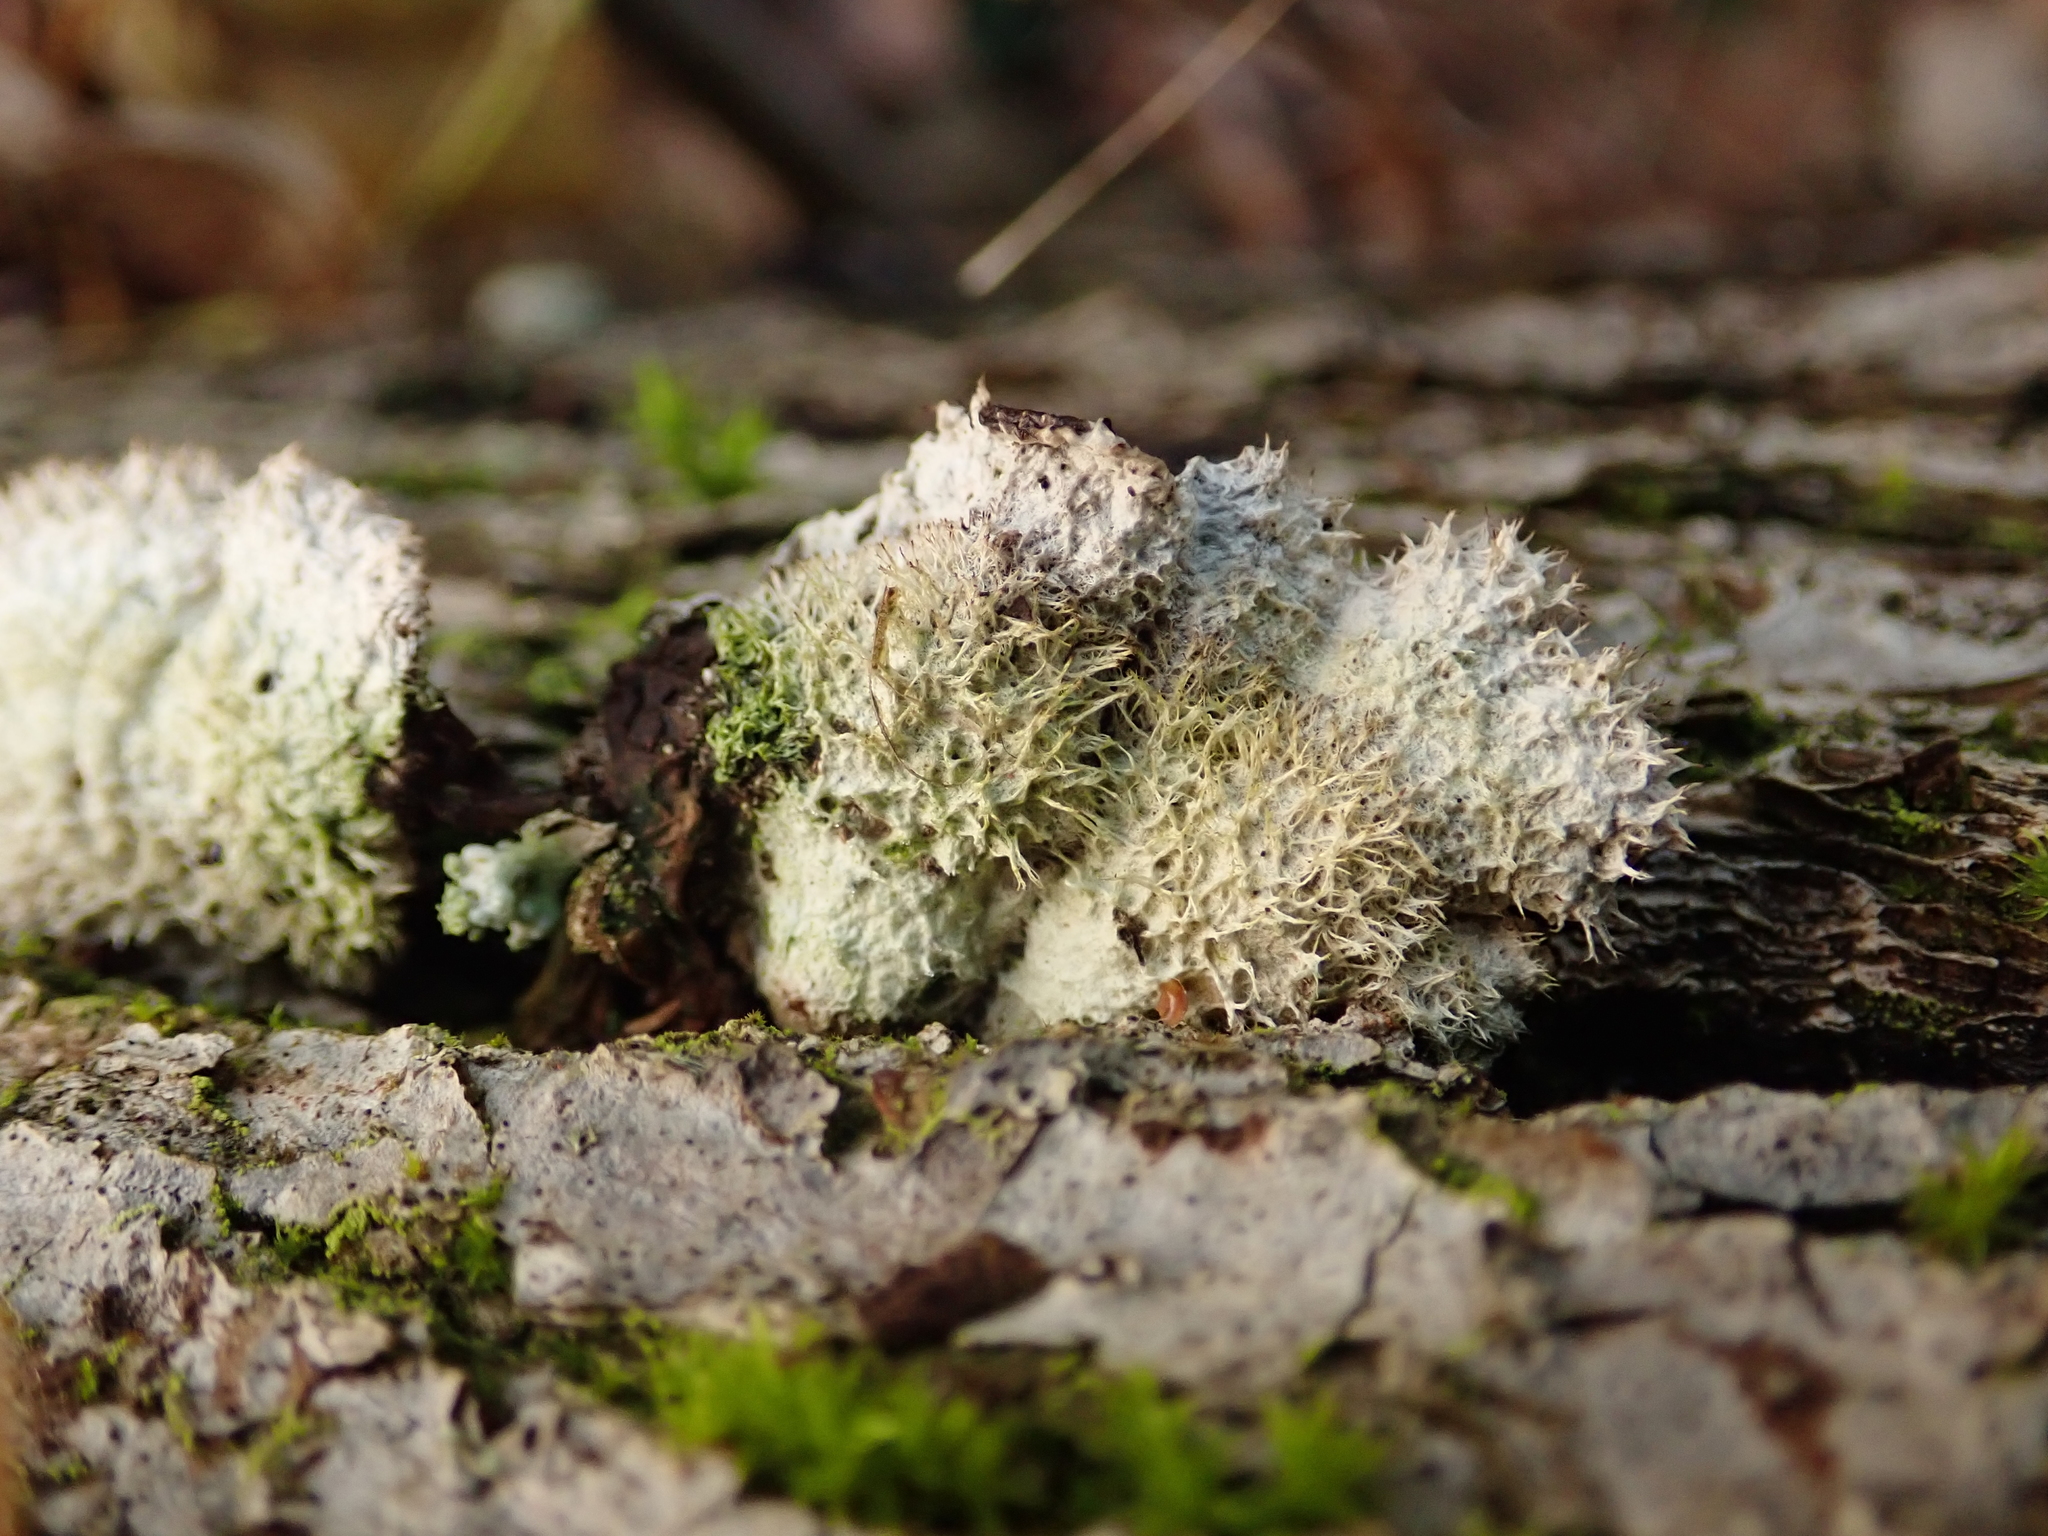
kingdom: Fungi
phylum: Basidiomycota
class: Agaricomycetes
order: Agaricales
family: Schizophyllaceae
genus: Schizophyllum
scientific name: Schizophyllum commune
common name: Common porecrust
